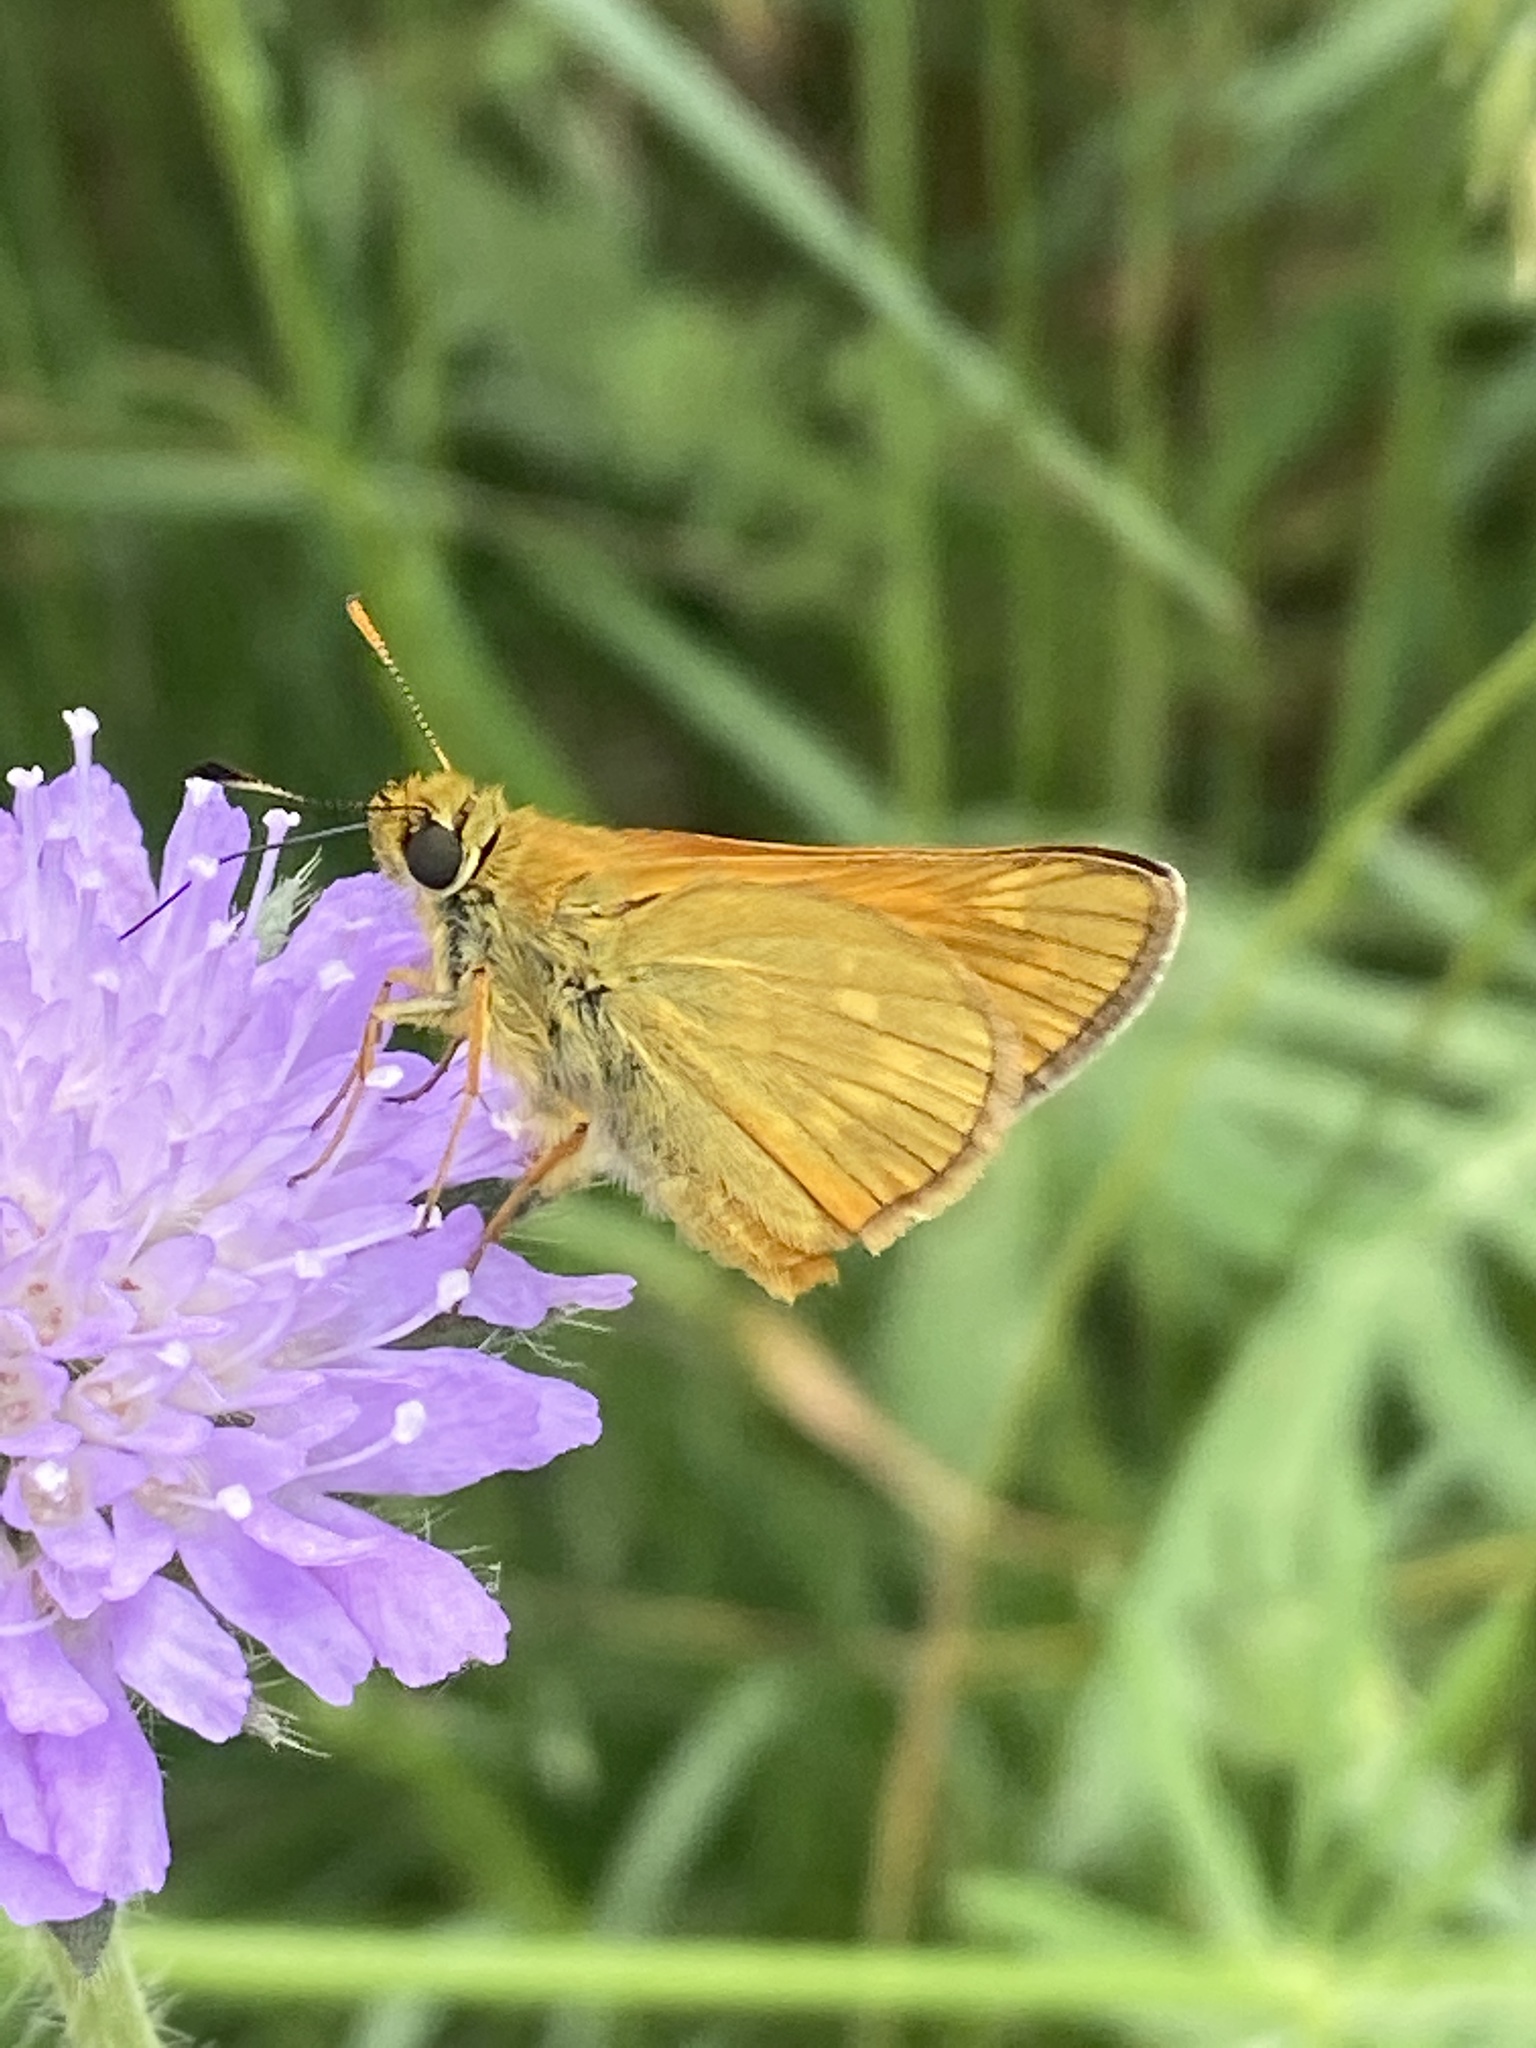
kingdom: Animalia
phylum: Arthropoda
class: Insecta
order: Lepidoptera
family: Hesperiidae
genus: Ochlodes
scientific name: Ochlodes venata
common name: Large skipper
